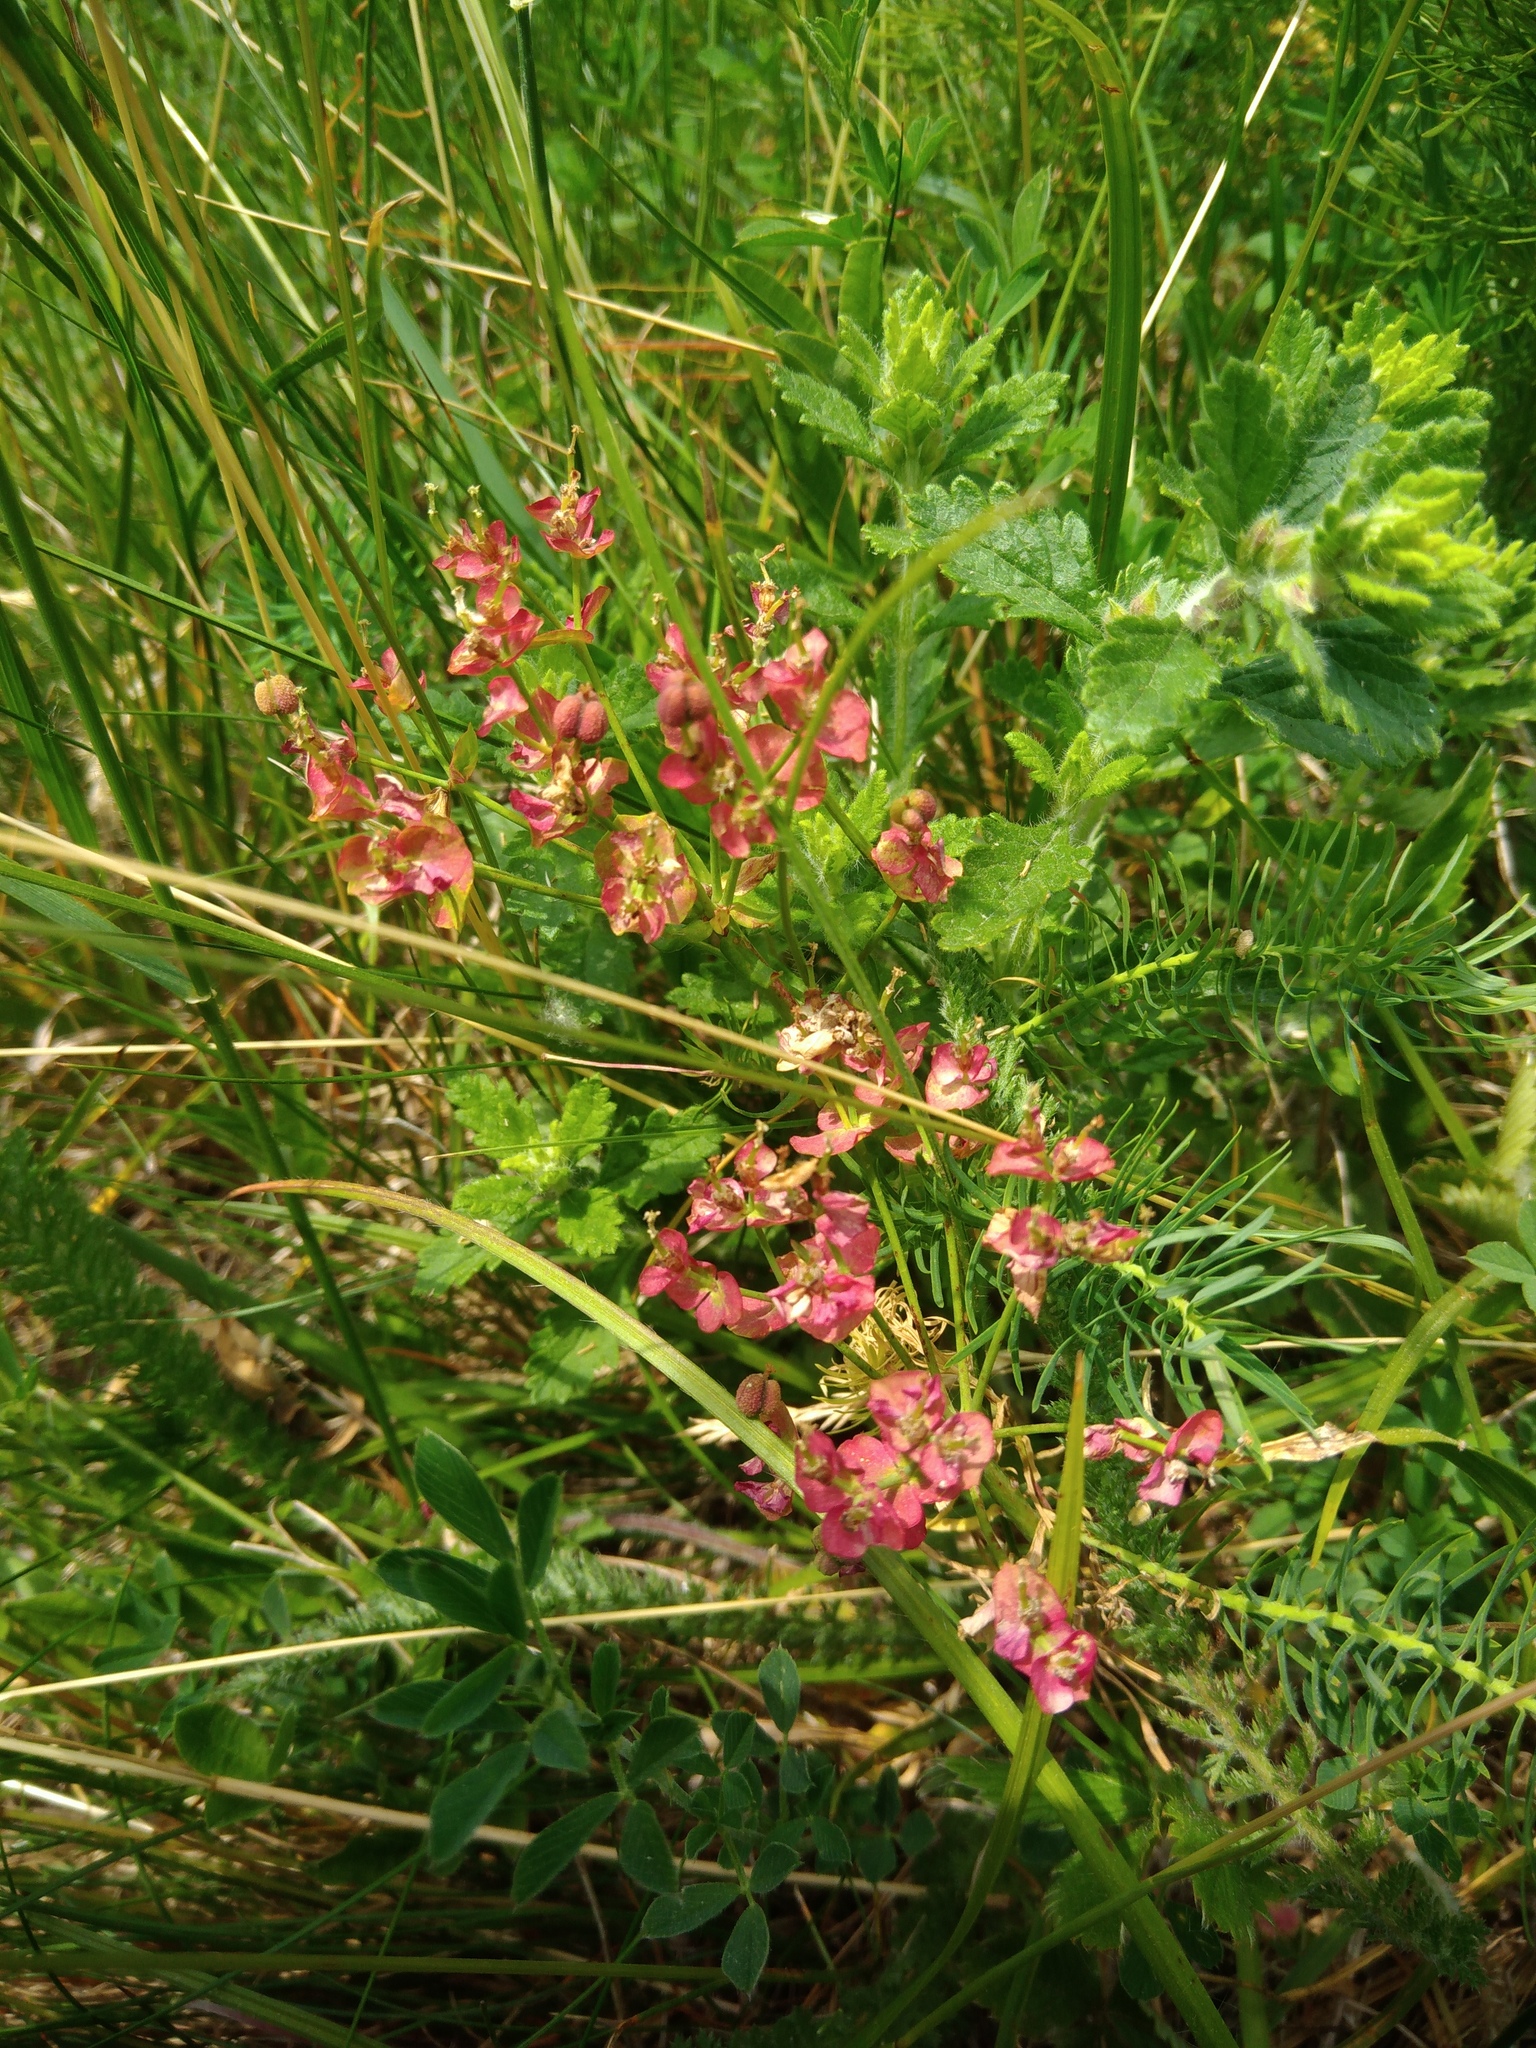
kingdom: Plantae
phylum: Tracheophyta
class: Magnoliopsida
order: Malpighiales
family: Euphorbiaceae
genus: Euphorbia
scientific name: Euphorbia cyparissias
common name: Cypress spurge
